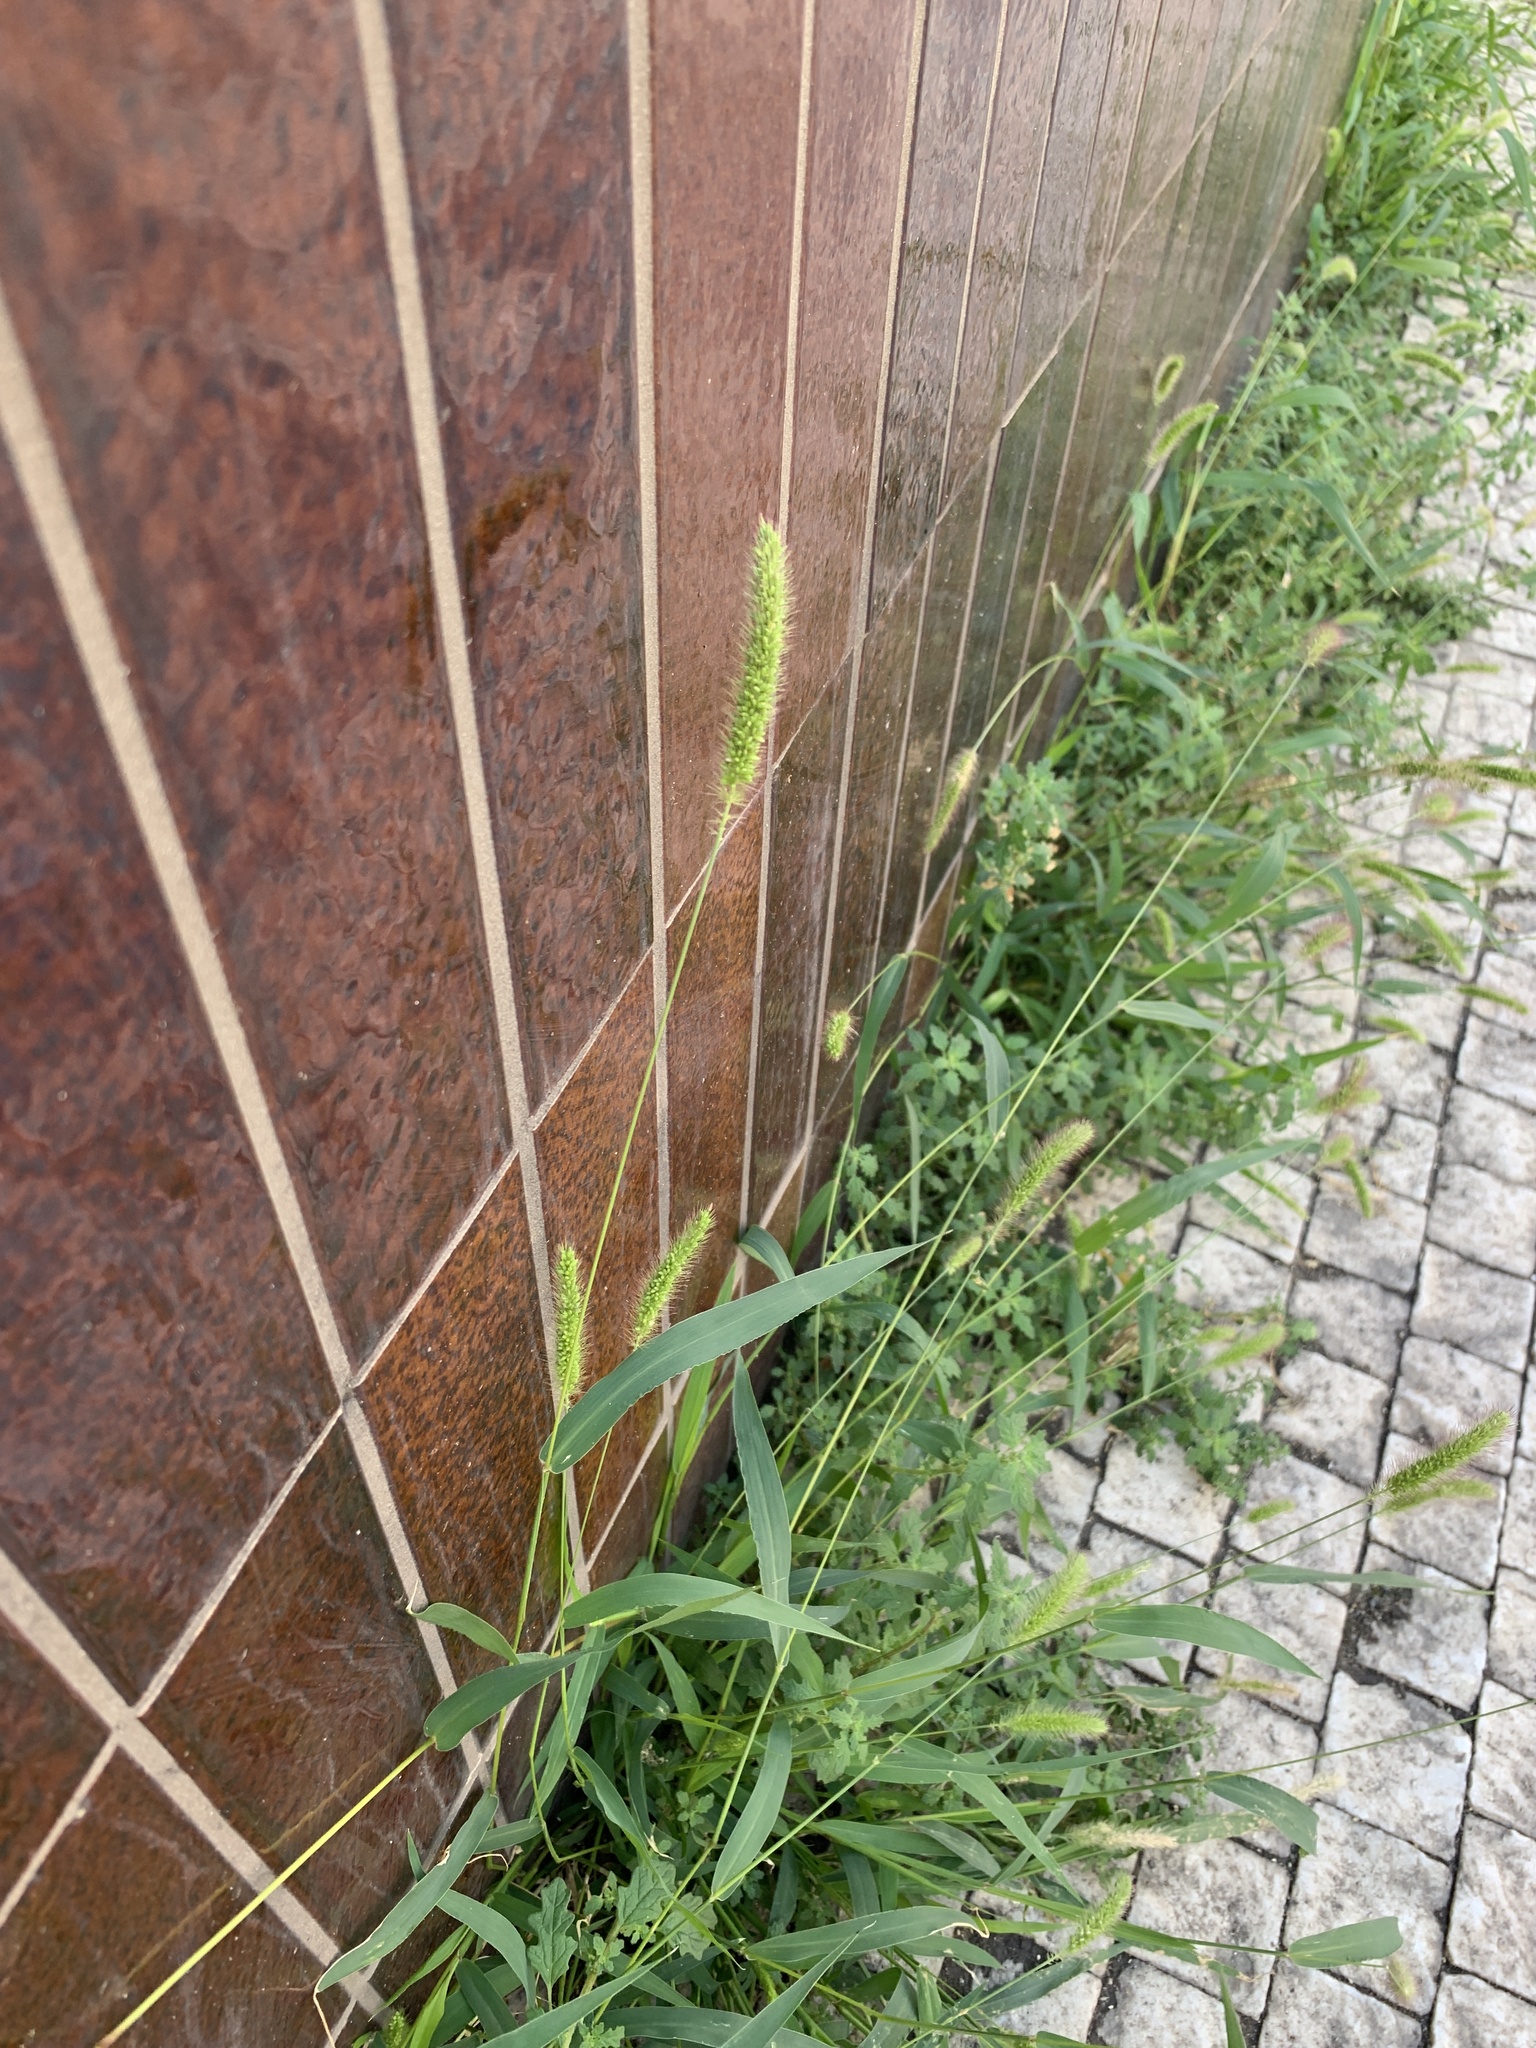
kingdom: Plantae
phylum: Tracheophyta
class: Liliopsida
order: Poales
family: Poaceae
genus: Setaria
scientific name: Setaria viridis
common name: Green bristlegrass
